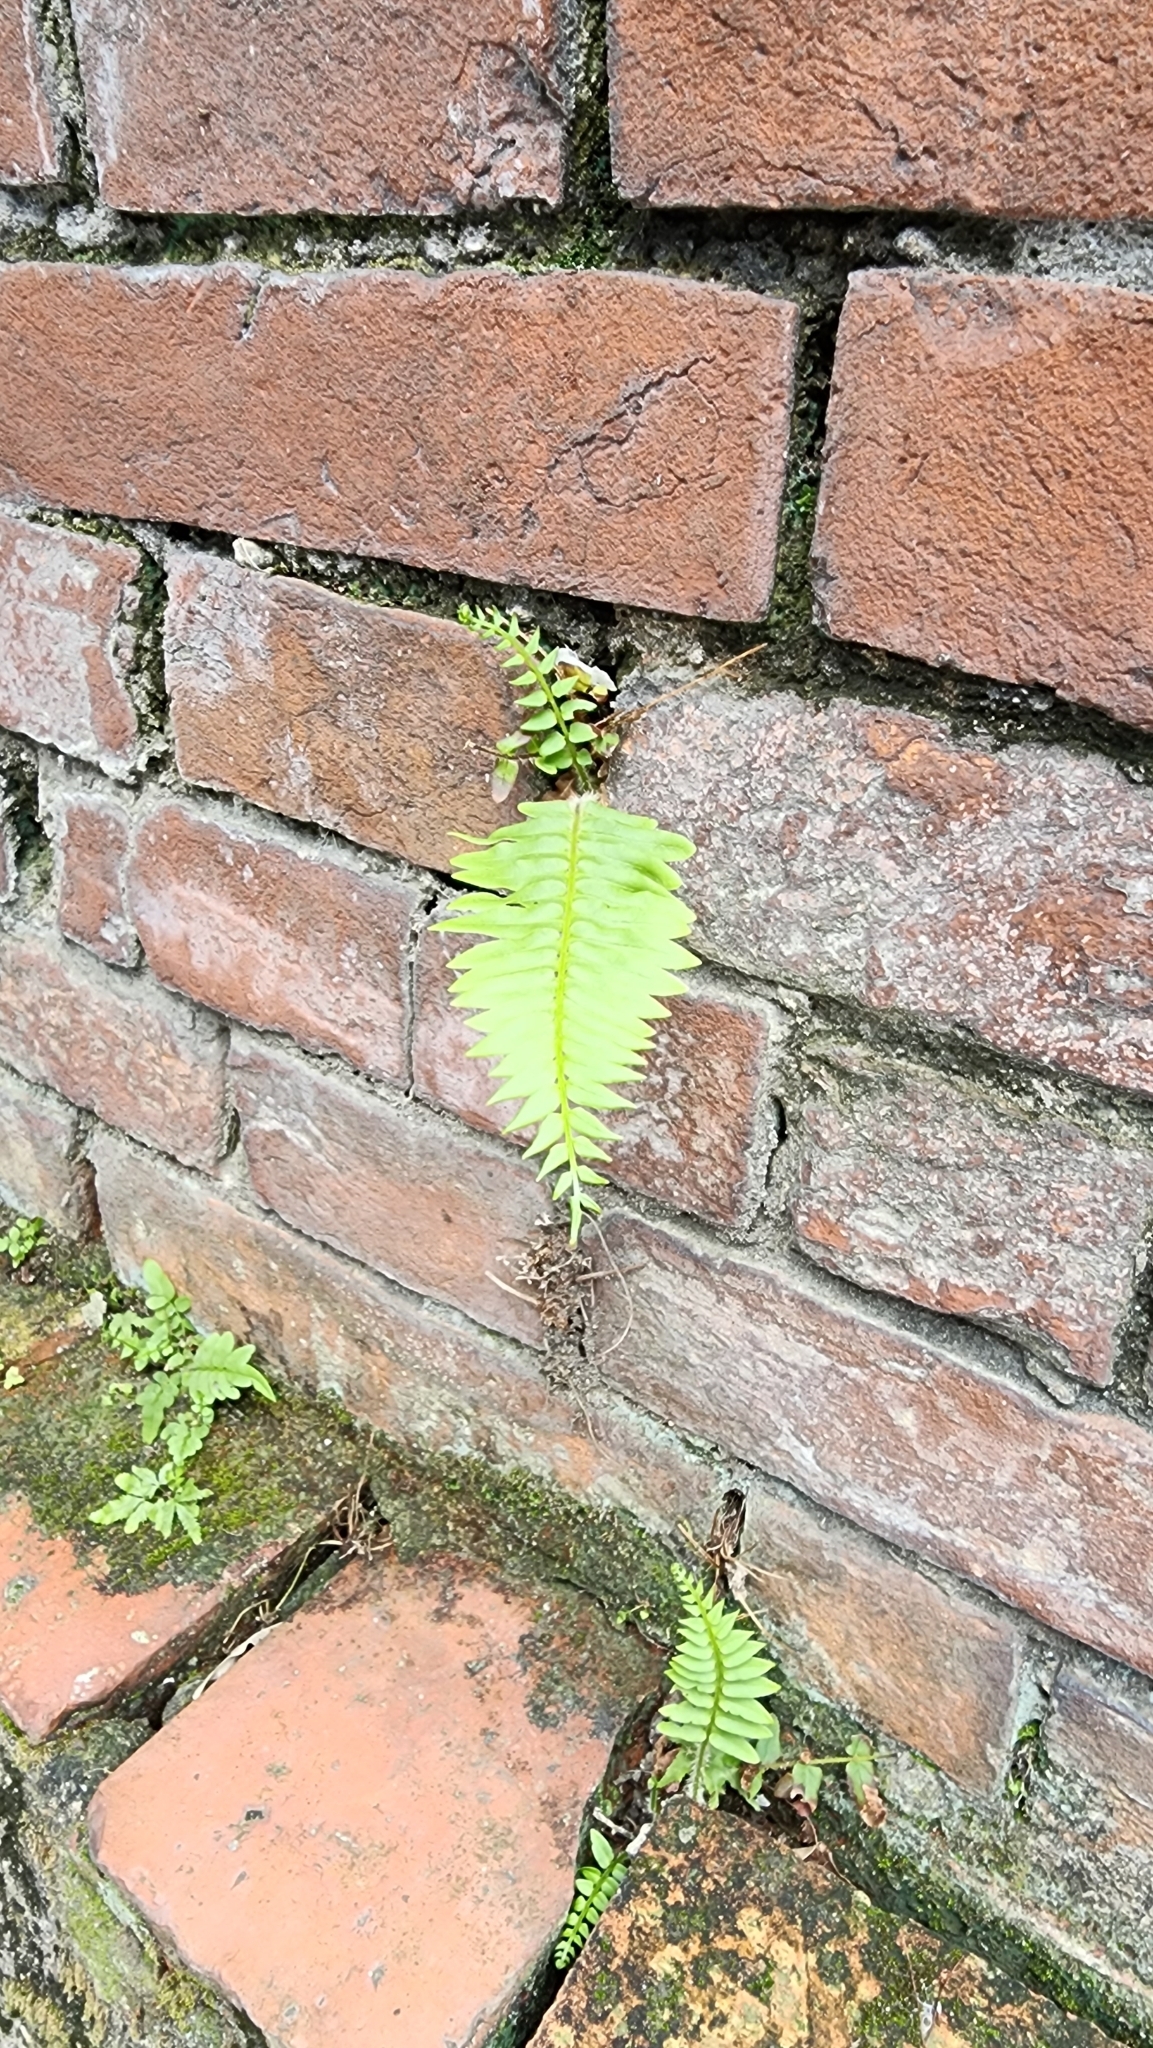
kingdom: Plantae
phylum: Tracheophyta
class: Polypodiopsida
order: Polypodiales
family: Pteridaceae
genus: Pteris
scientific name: Pteris vittata
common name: Ladder brake
